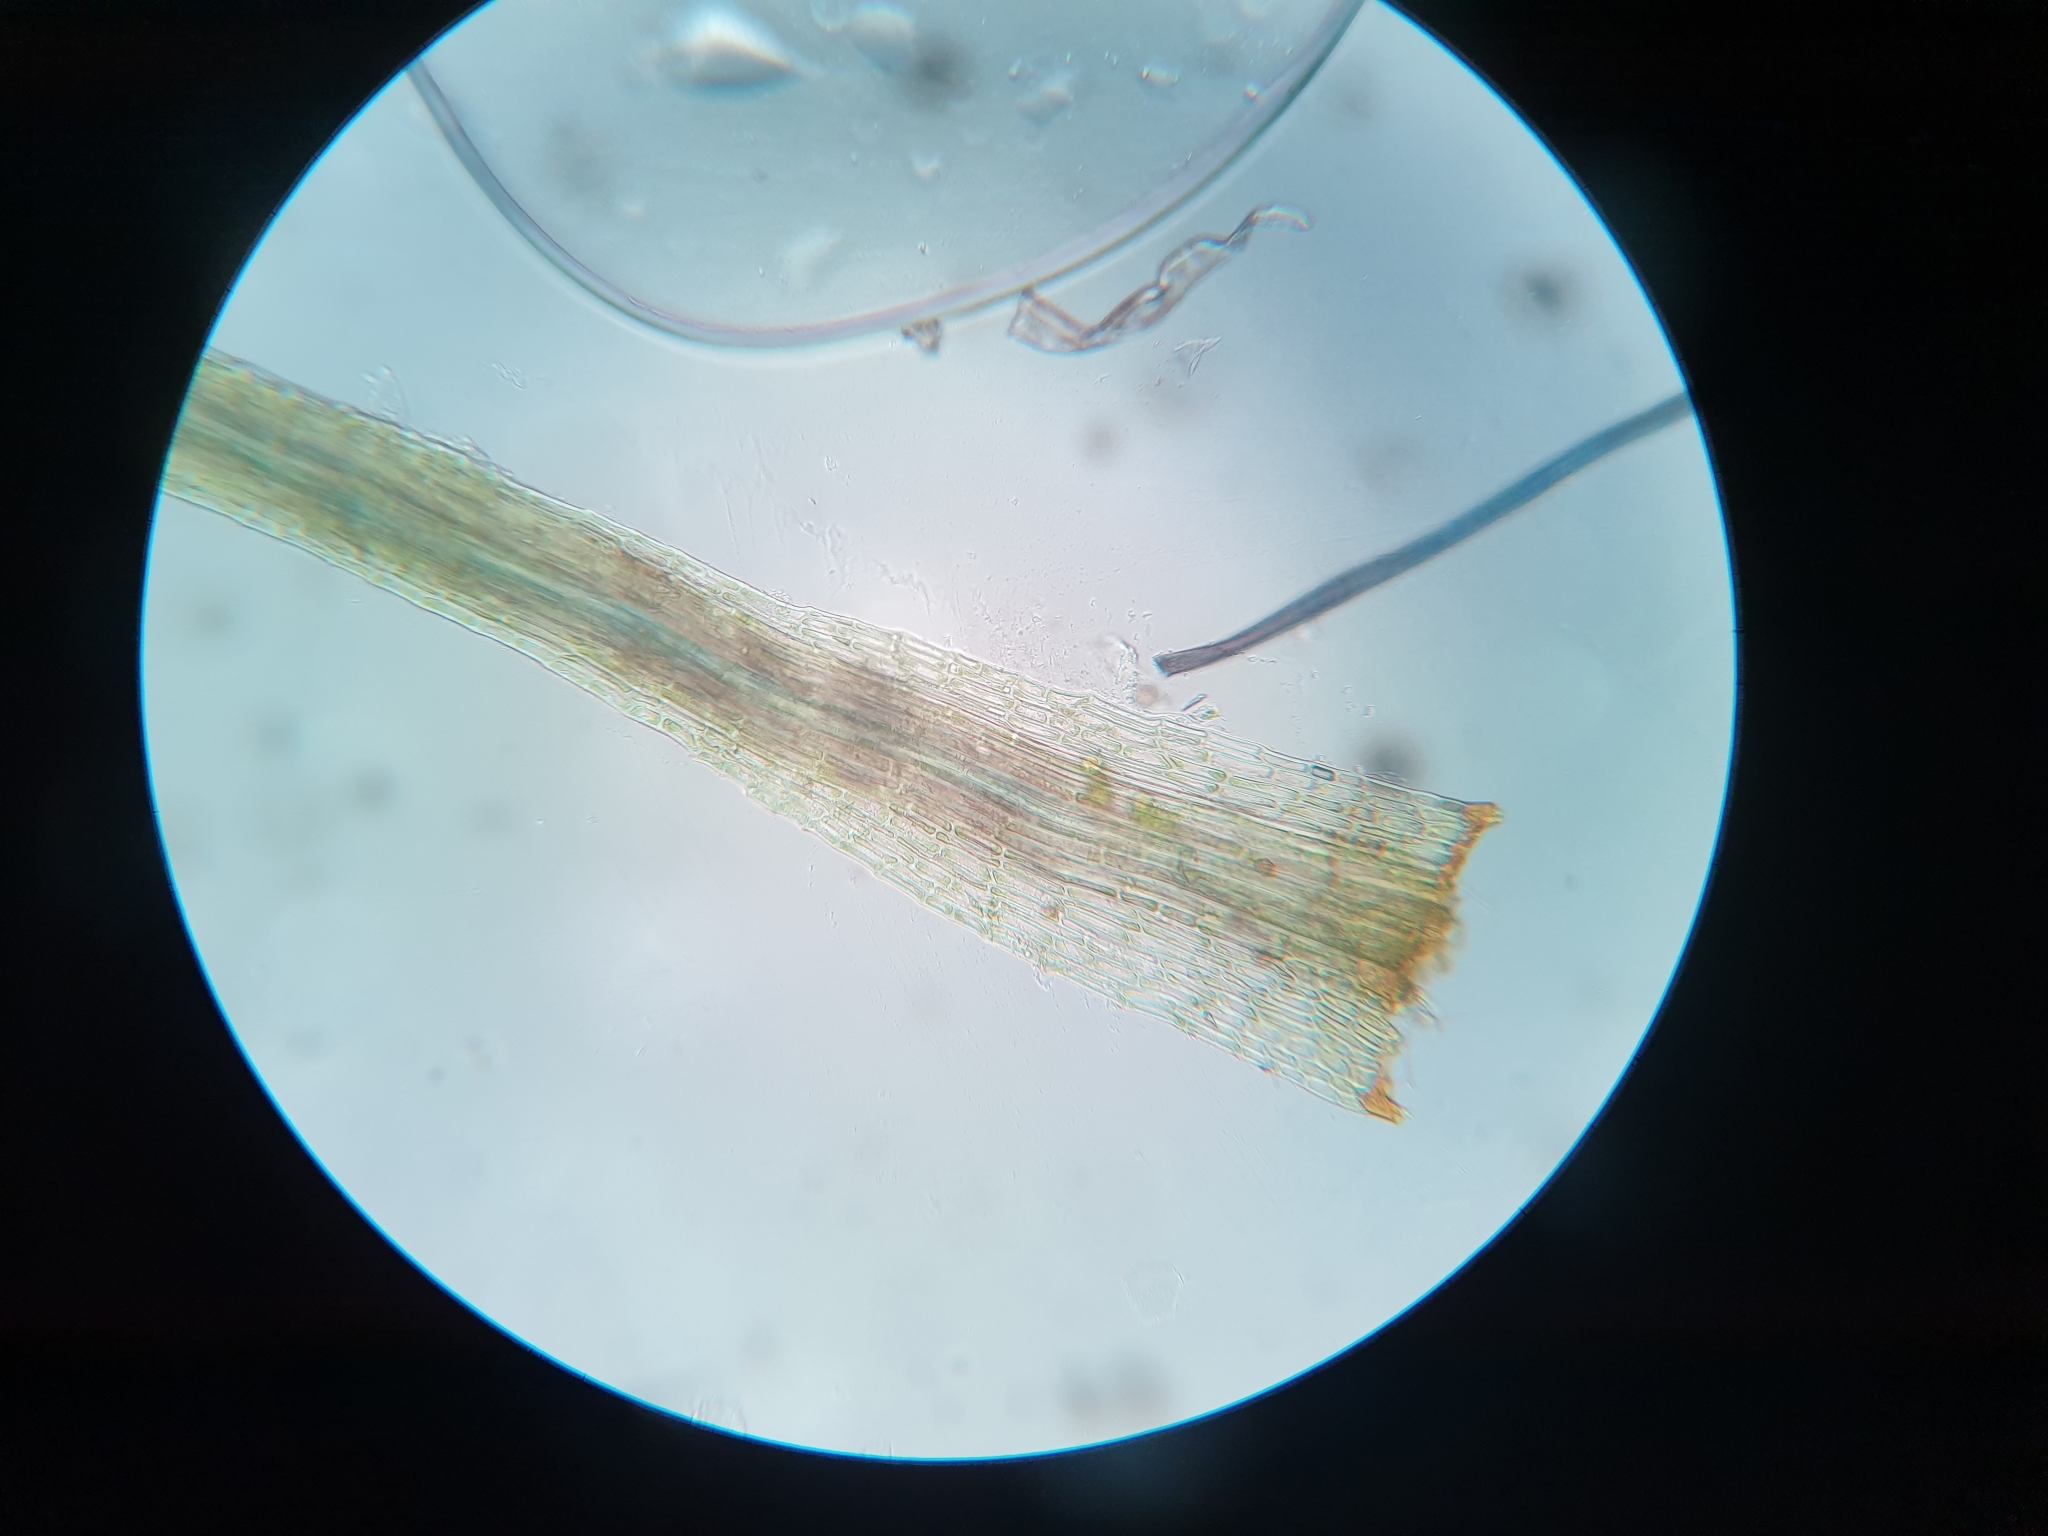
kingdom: Plantae
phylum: Bryophyta
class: Bryopsida
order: Dicranales
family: Dicranellaceae
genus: Dicranella
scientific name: Dicranella heteromalla
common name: Silky forklet moss
